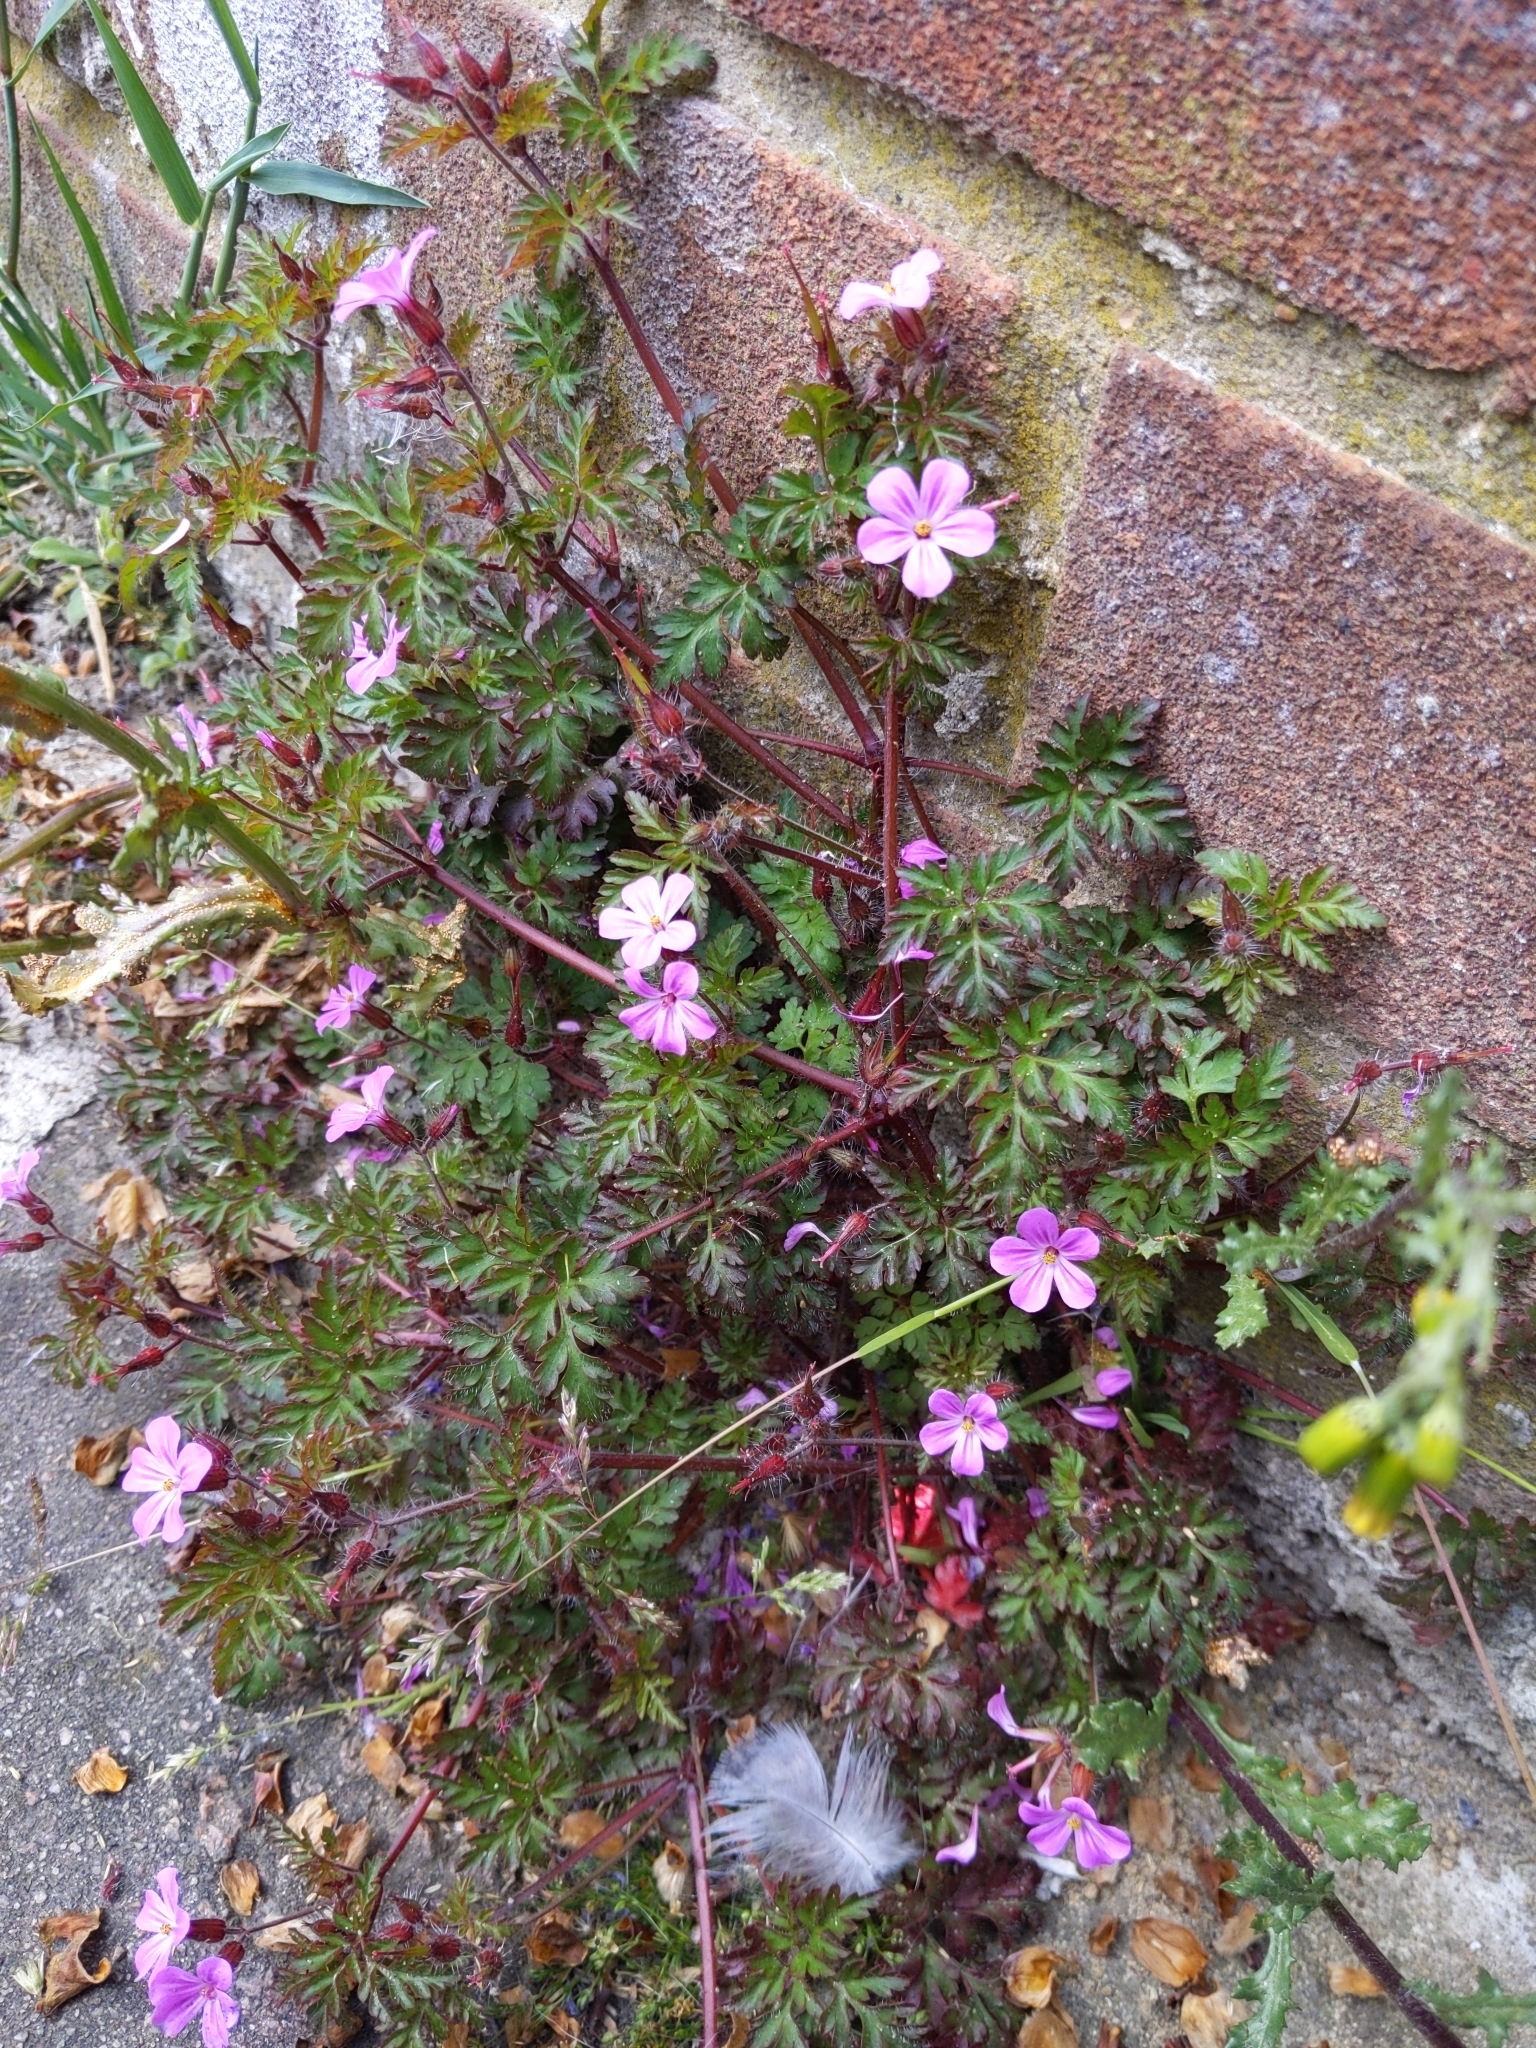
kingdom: Plantae
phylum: Tracheophyta
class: Magnoliopsida
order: Geraniales
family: Geraniaceae
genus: Geranium
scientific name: Geranium robertianum
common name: Herb-robert
